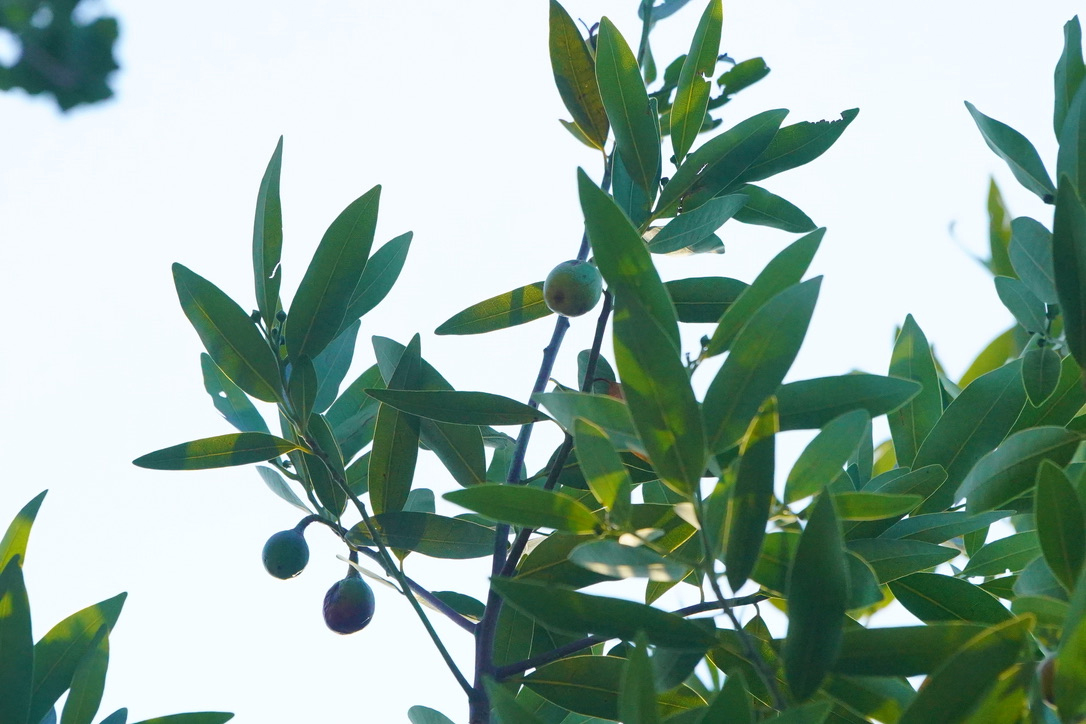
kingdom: Plantae
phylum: Tracheophyta
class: Magnoliopsida
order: Laurales
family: Lauraceae
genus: Umbellularia
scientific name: Umbellularia californica
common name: California bay
